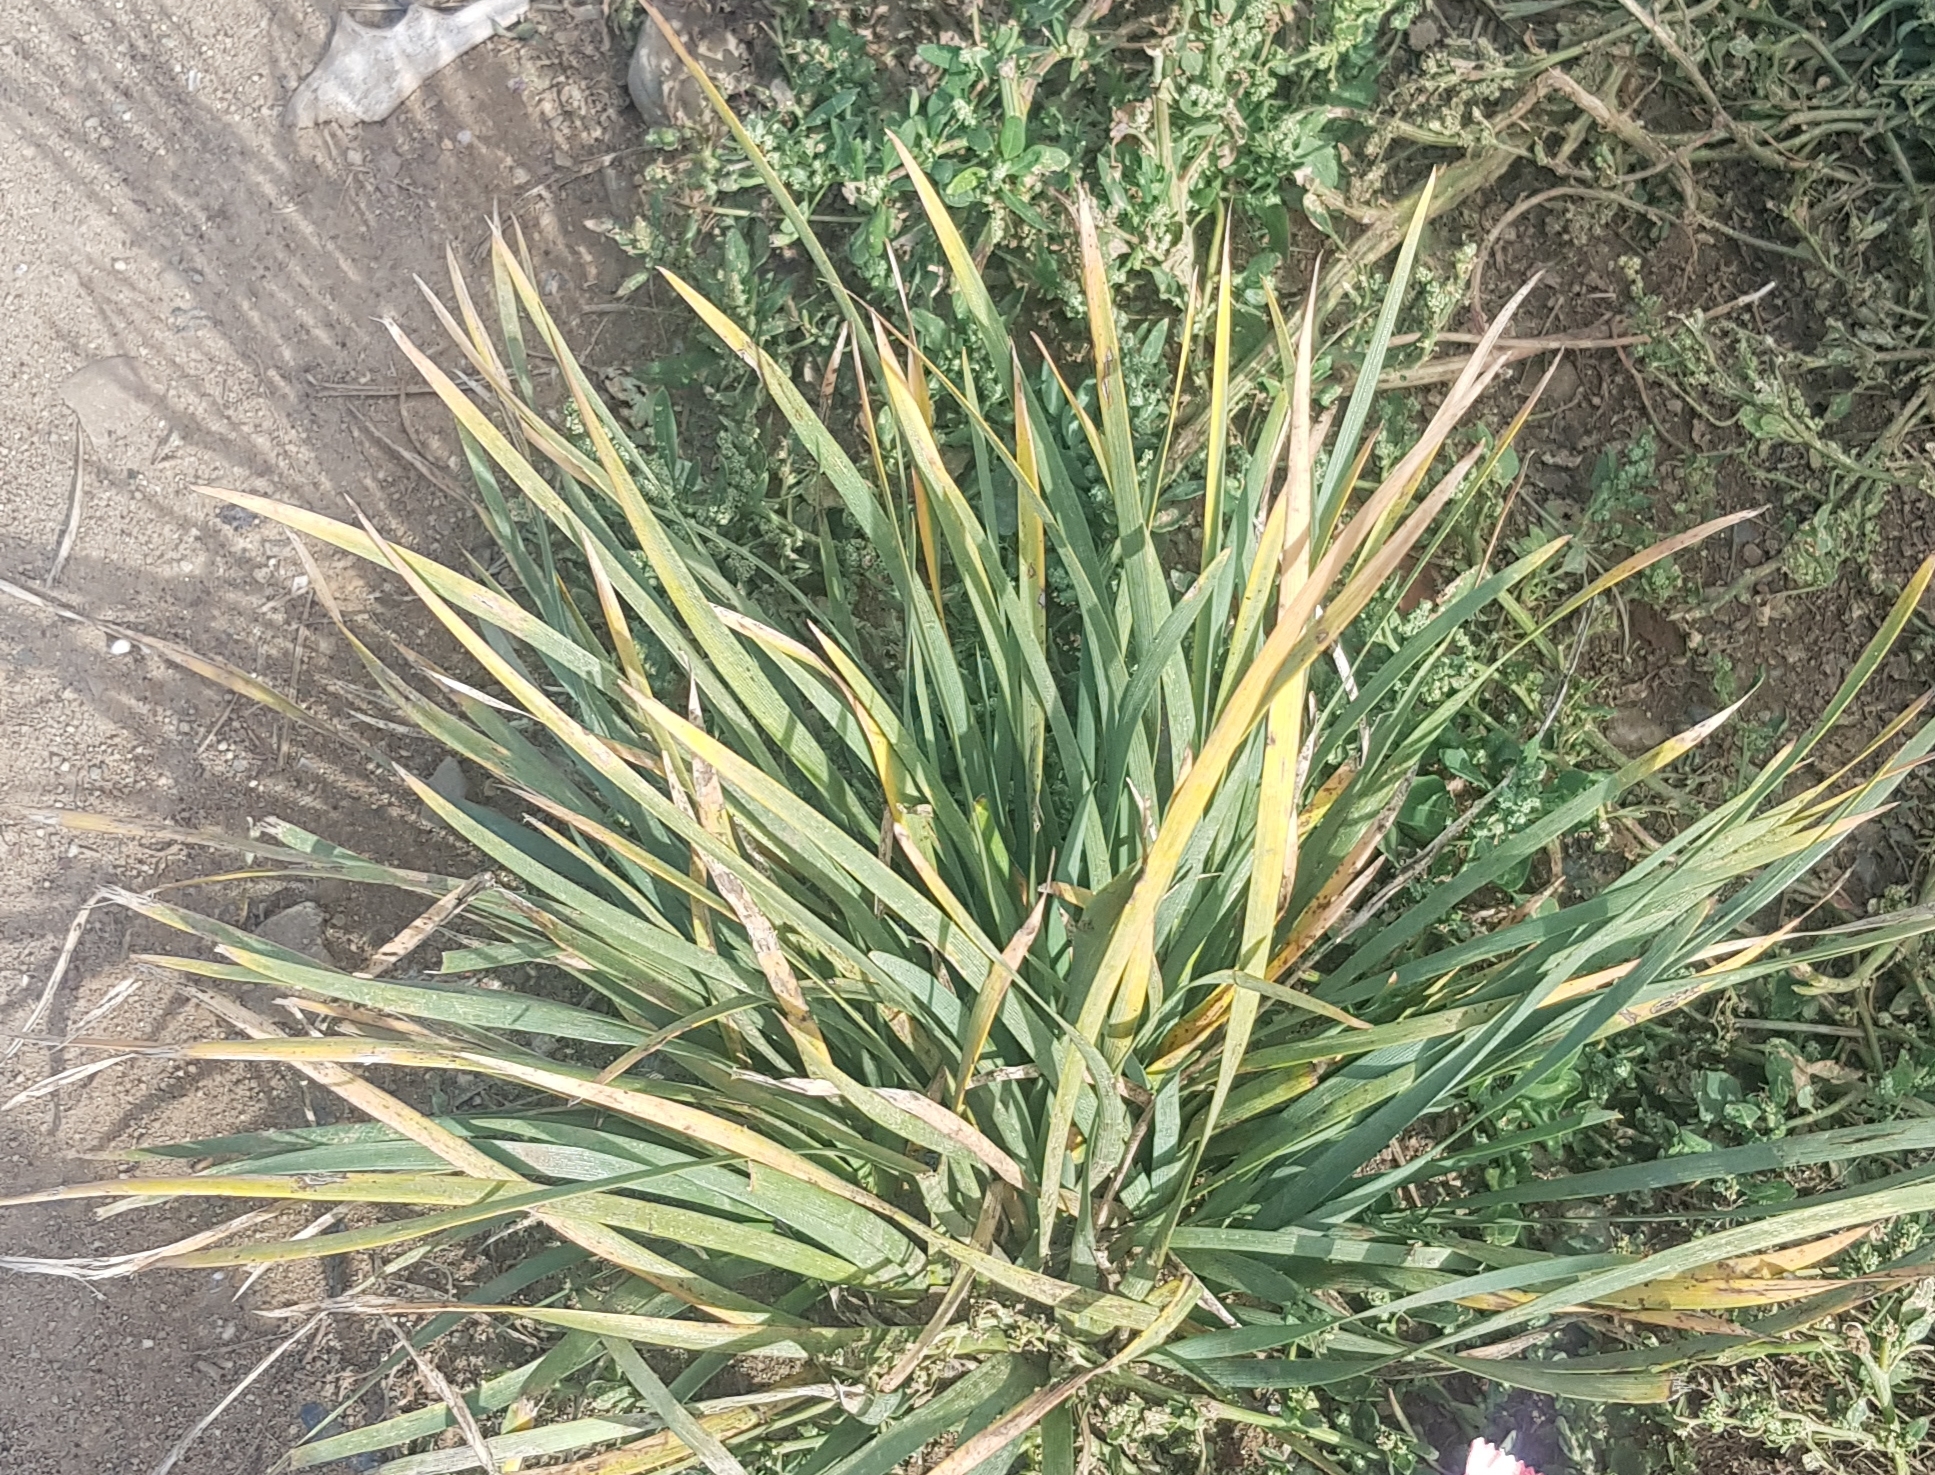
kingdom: Plantae
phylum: Tracheophyta
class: Liliopsida
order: Asparagales
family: Iridaceae
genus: Iris
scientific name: Iris lactea
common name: White-flower chinese iris
